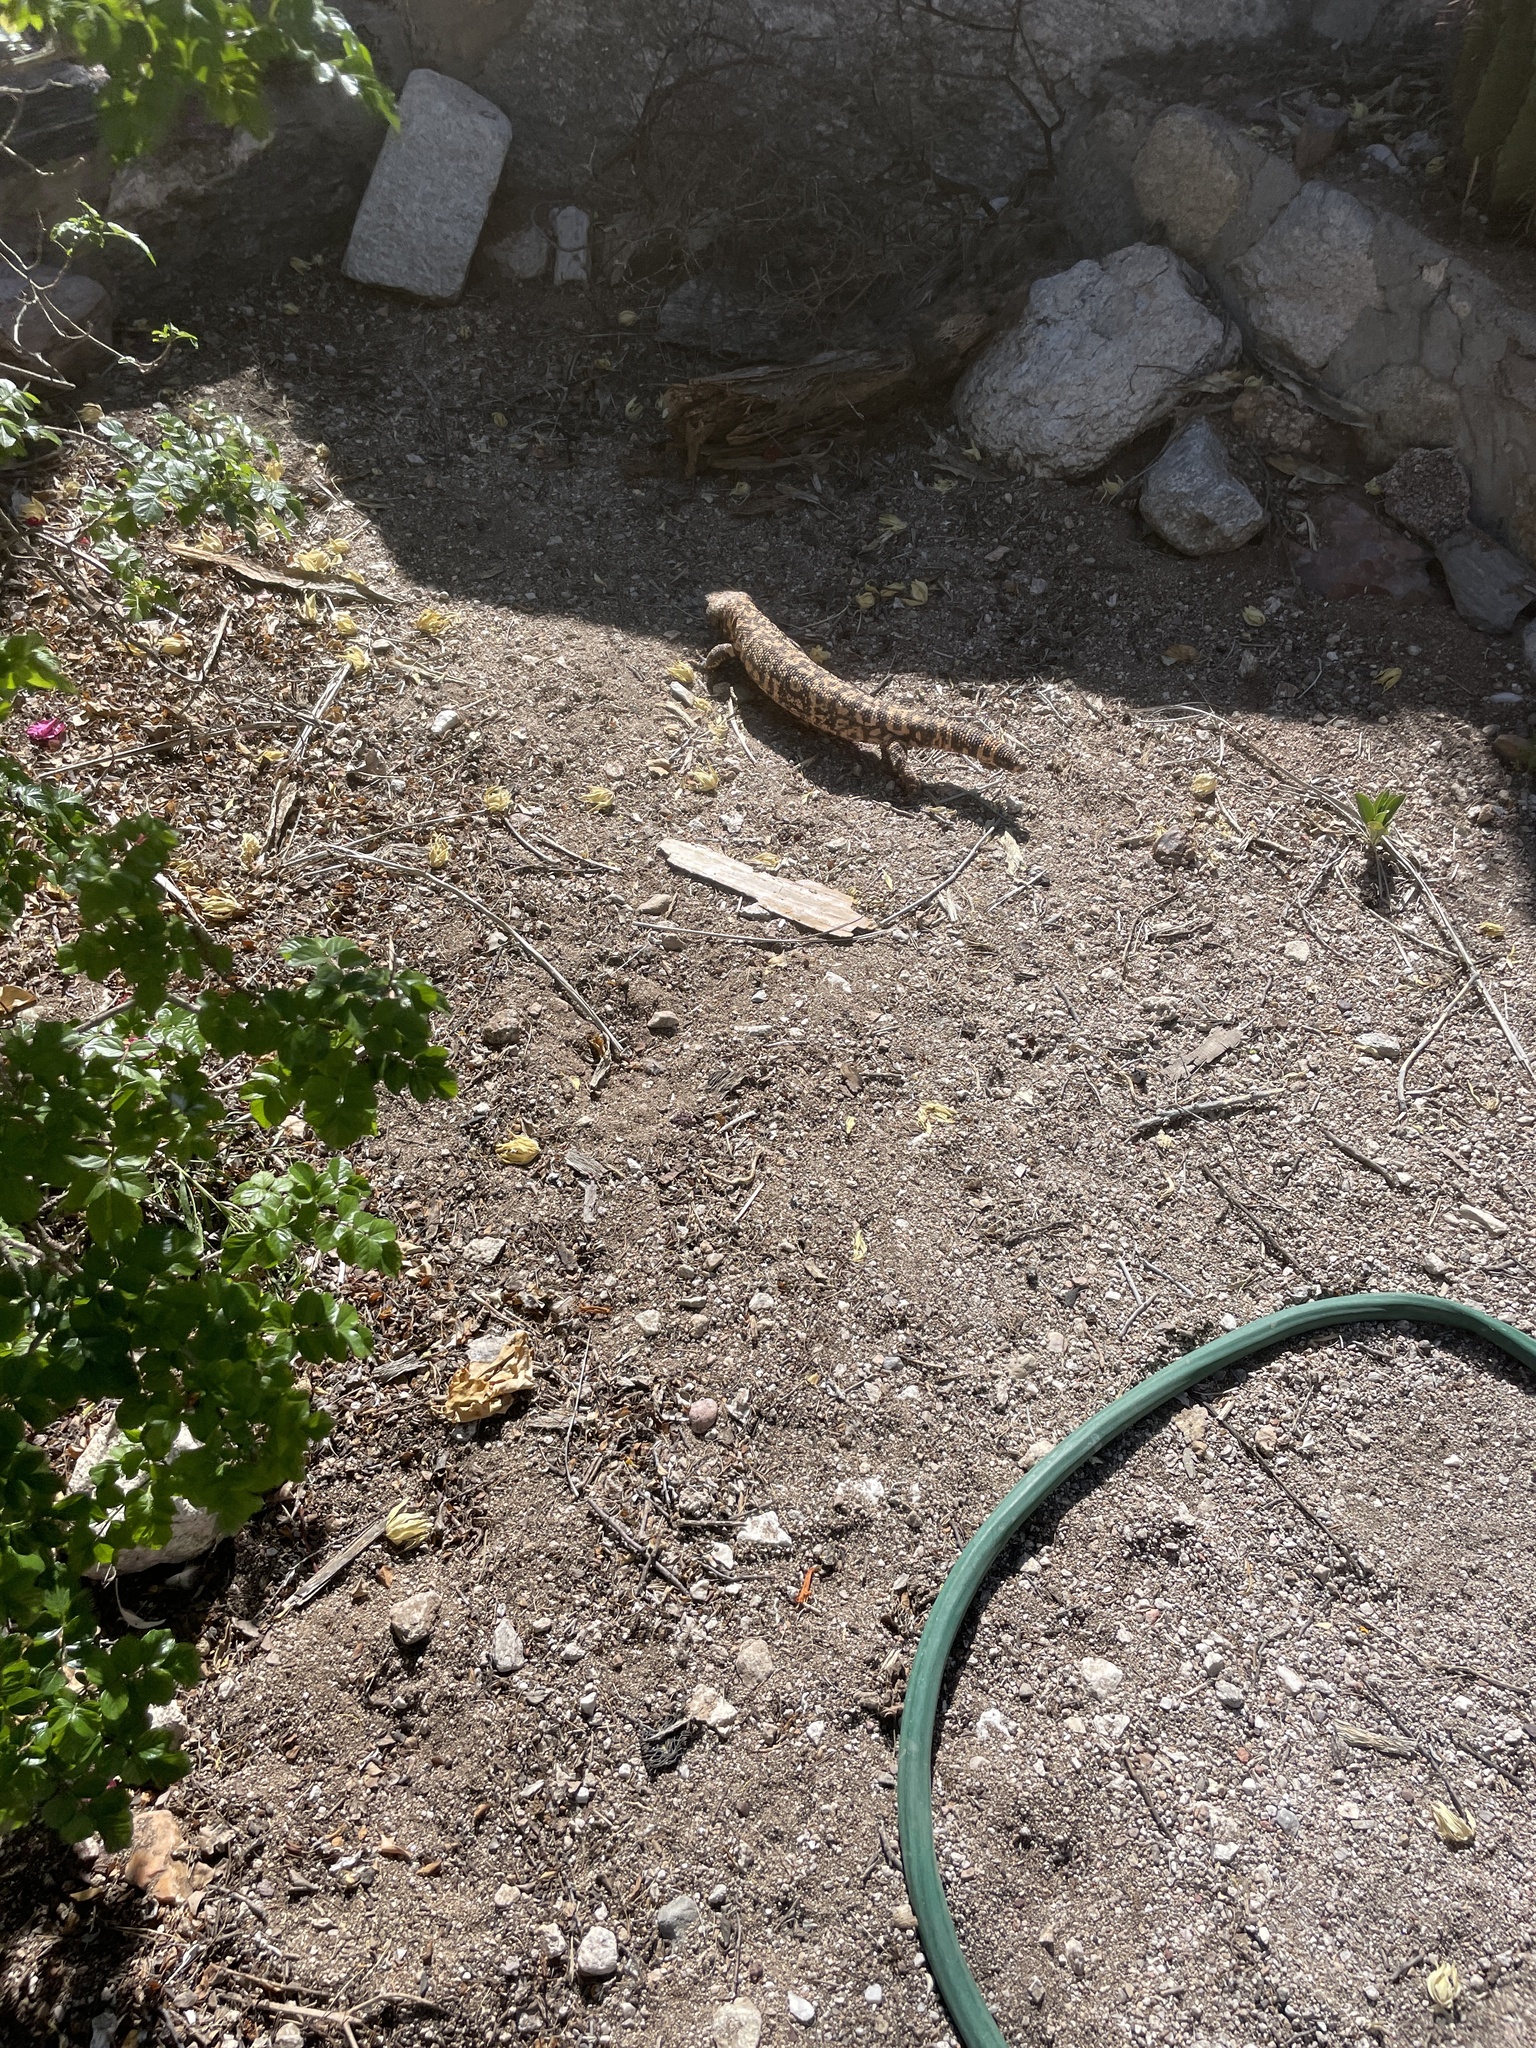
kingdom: Animalia
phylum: Chordata
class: Squamata
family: Helodermatidae
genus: Heloderma
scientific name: Heloderma suspectum
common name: Gila monster
